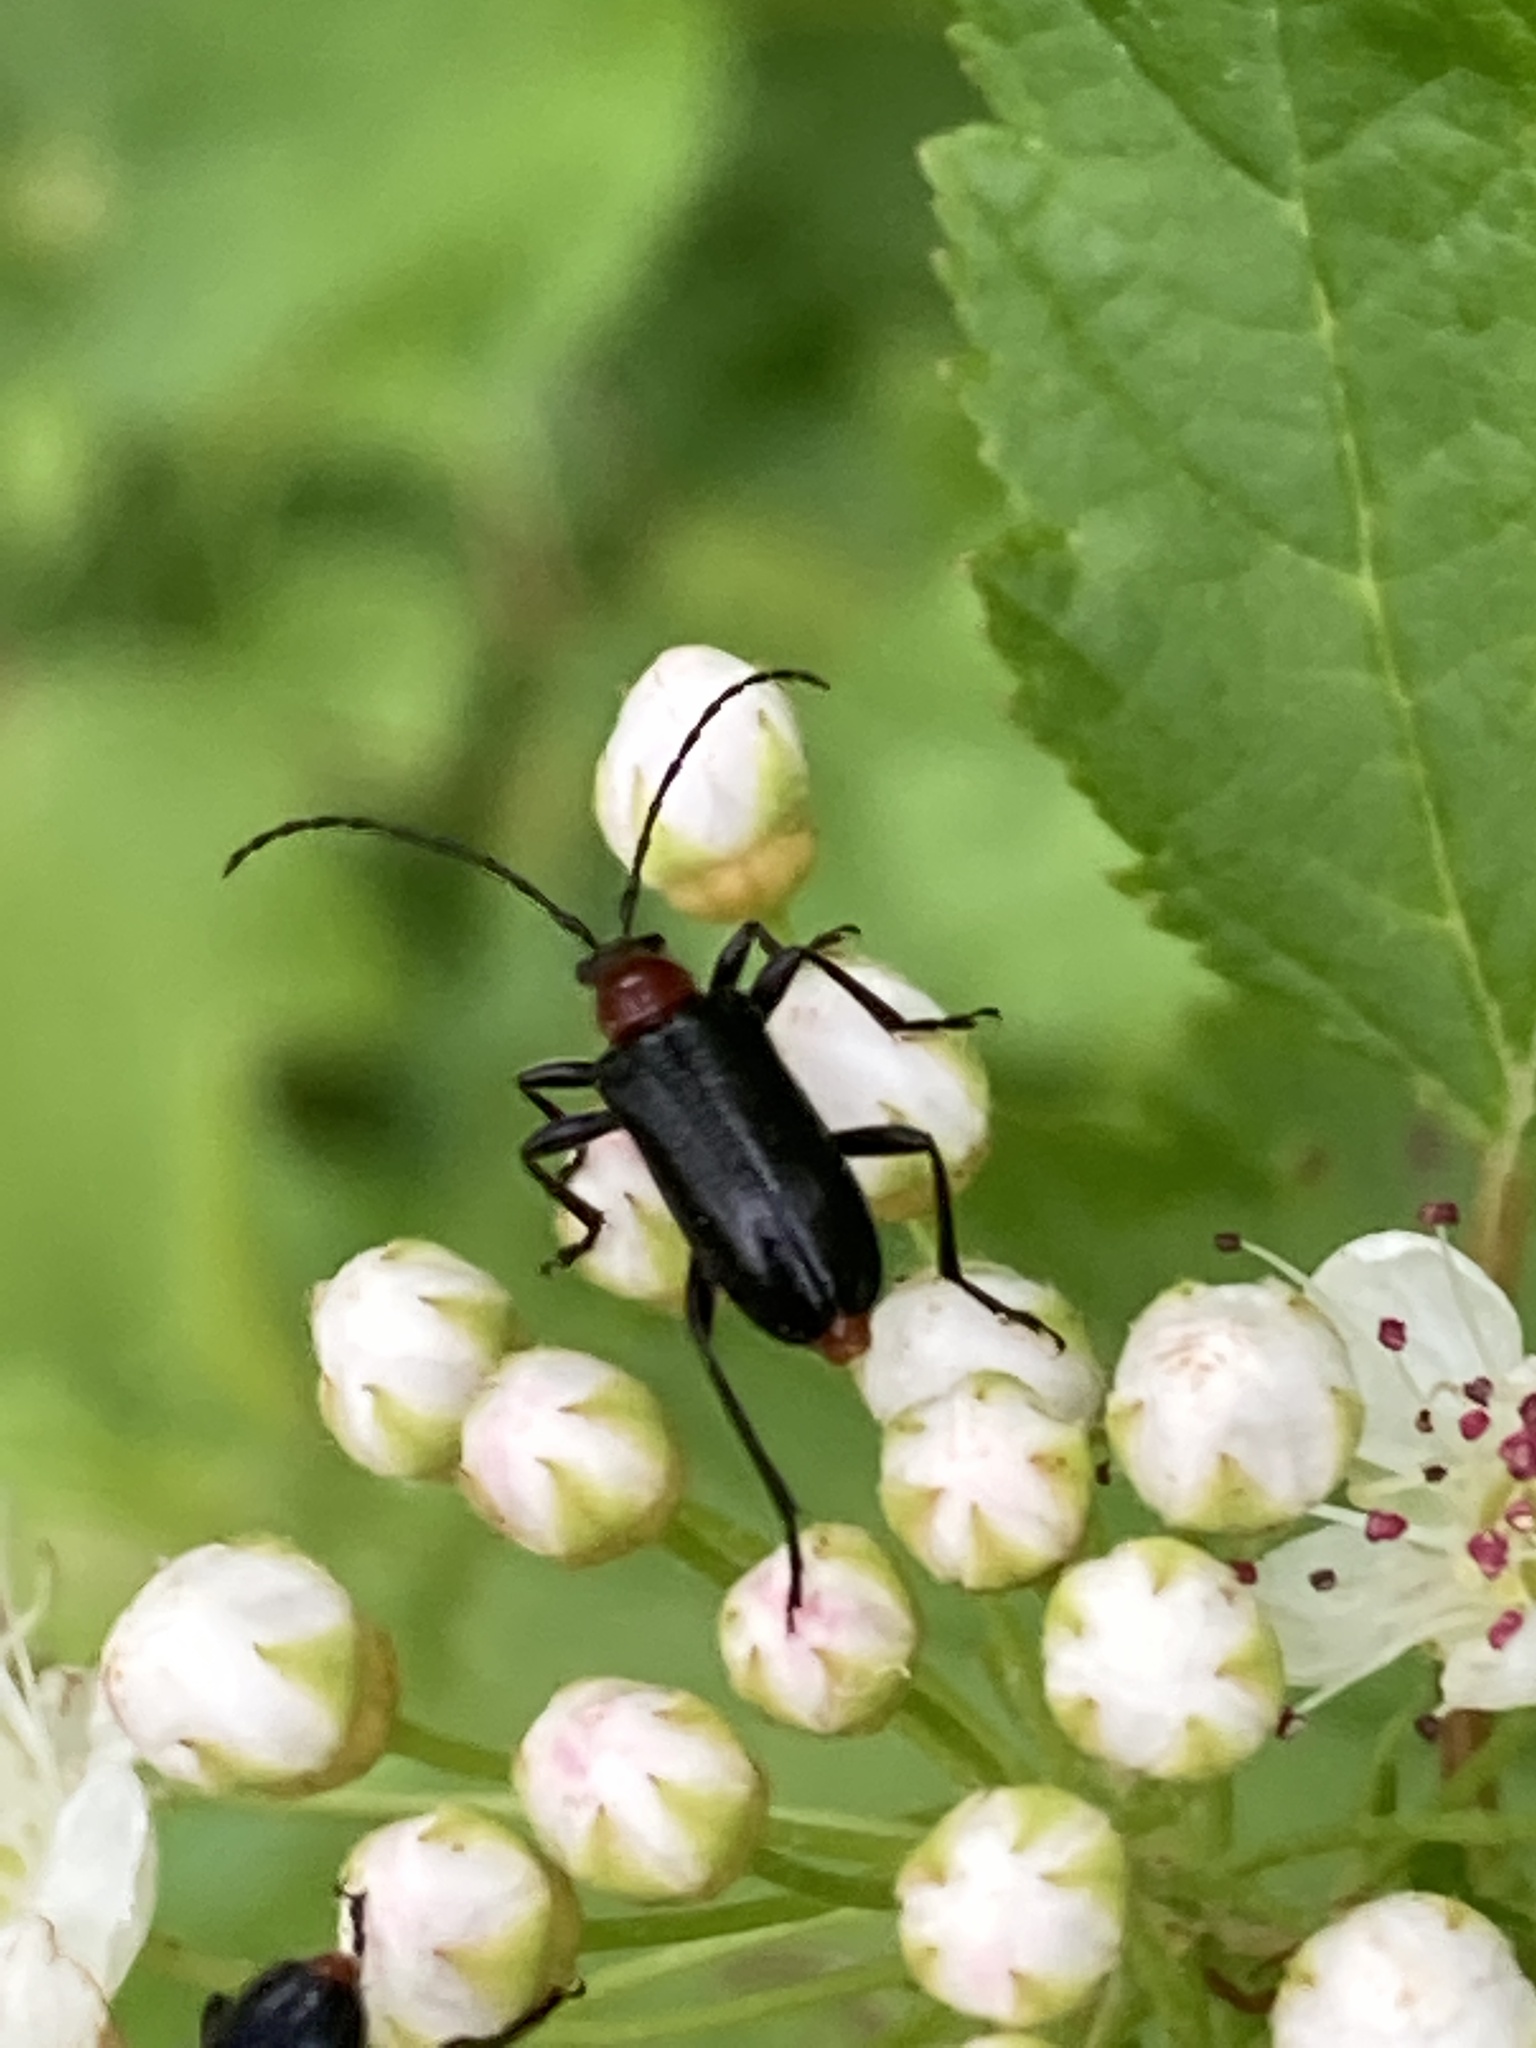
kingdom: Animalia
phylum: Arthropoda
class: Insecta
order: Coleoptera
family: Cerambycidae
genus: Dinoptera
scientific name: Dinoptera collaris
